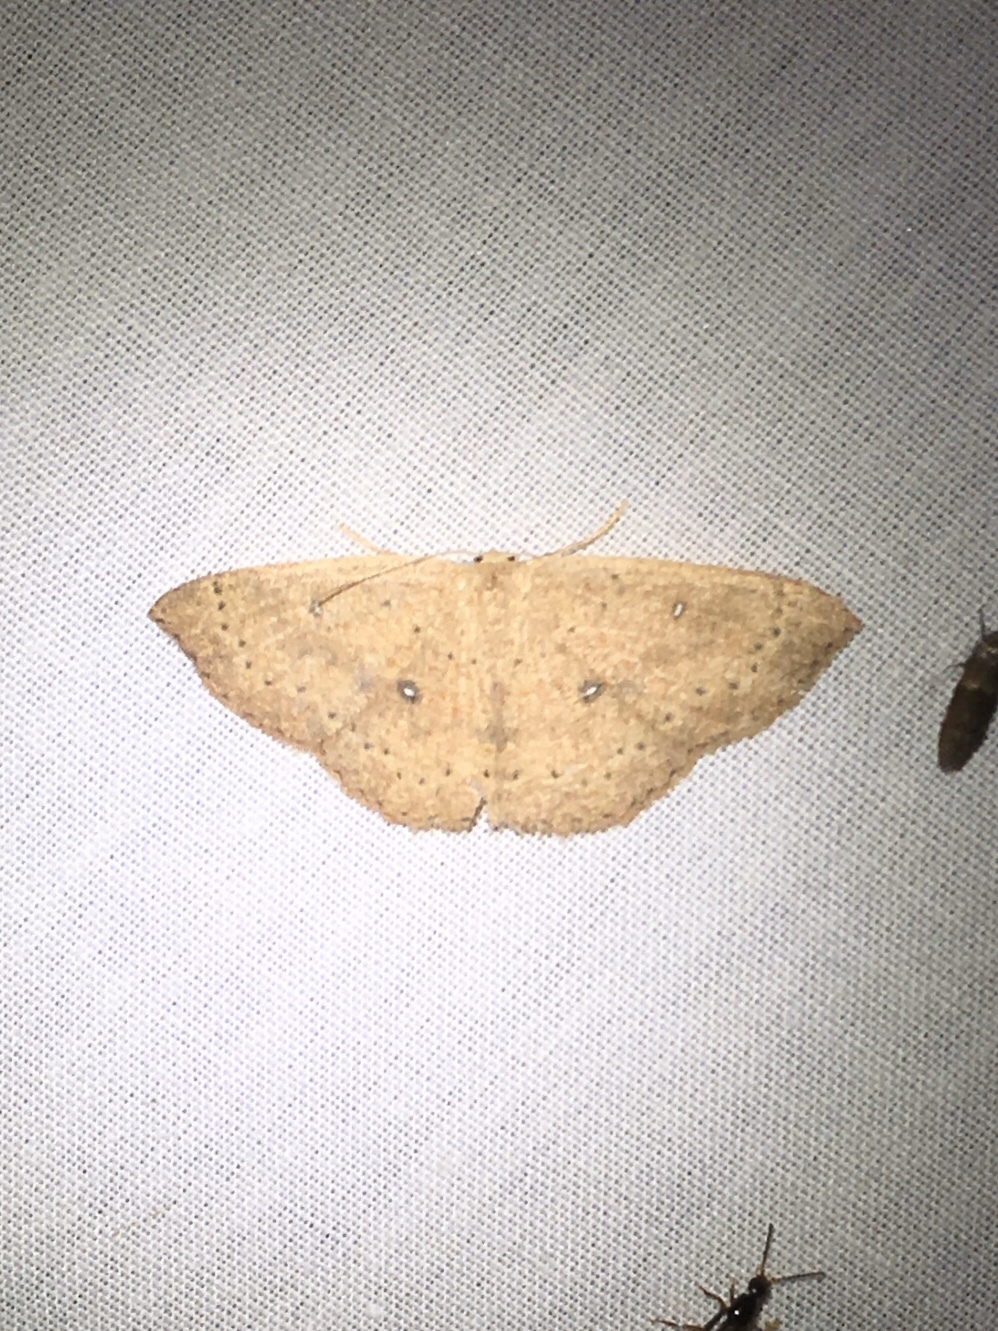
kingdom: Animalia
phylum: Arthropoda
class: Insecta
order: Lepidoptera
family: Geometridae
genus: Cyclophora
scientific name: Cyclophora packardi
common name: Packard's wave
